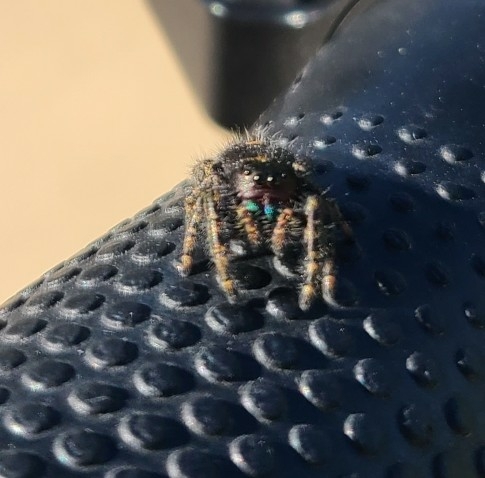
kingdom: Animalia
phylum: Arthropoda
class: Arachnida
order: Araneae
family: Salticidae
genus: Phidippus
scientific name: Phidippus audax
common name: Bold jumper
